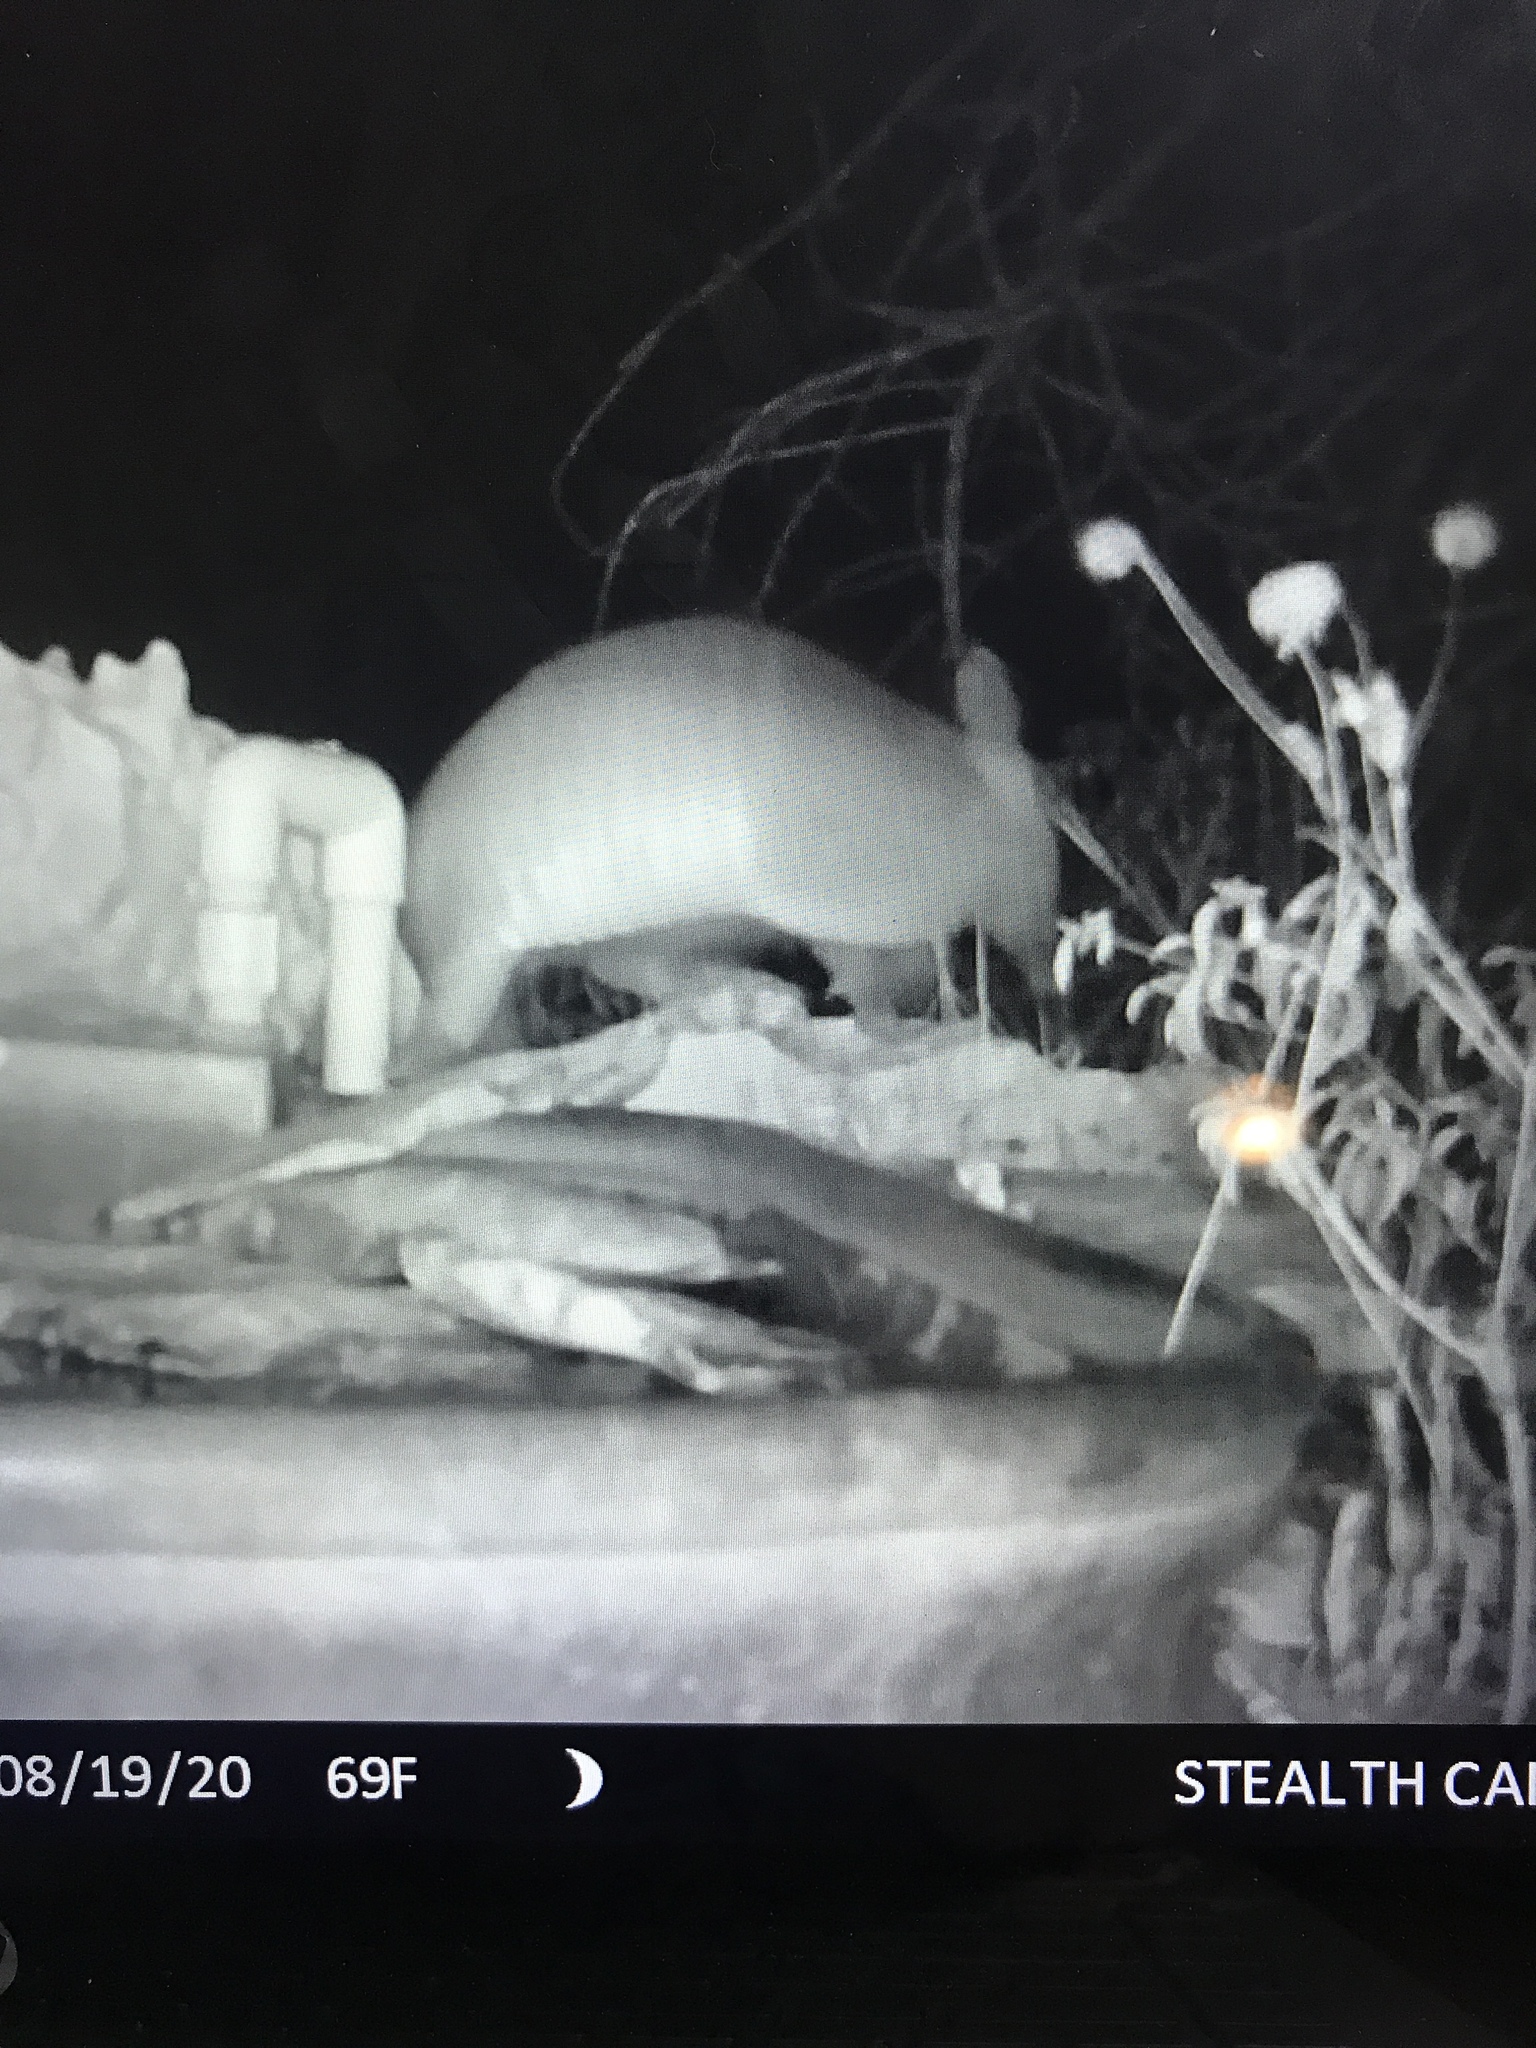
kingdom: Animalia
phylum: Chordata
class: Mammalia
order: Cingulata
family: Dasypodidae
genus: Dasypus
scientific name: Dasypus novemcinctus
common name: Nine-banded armadillo
